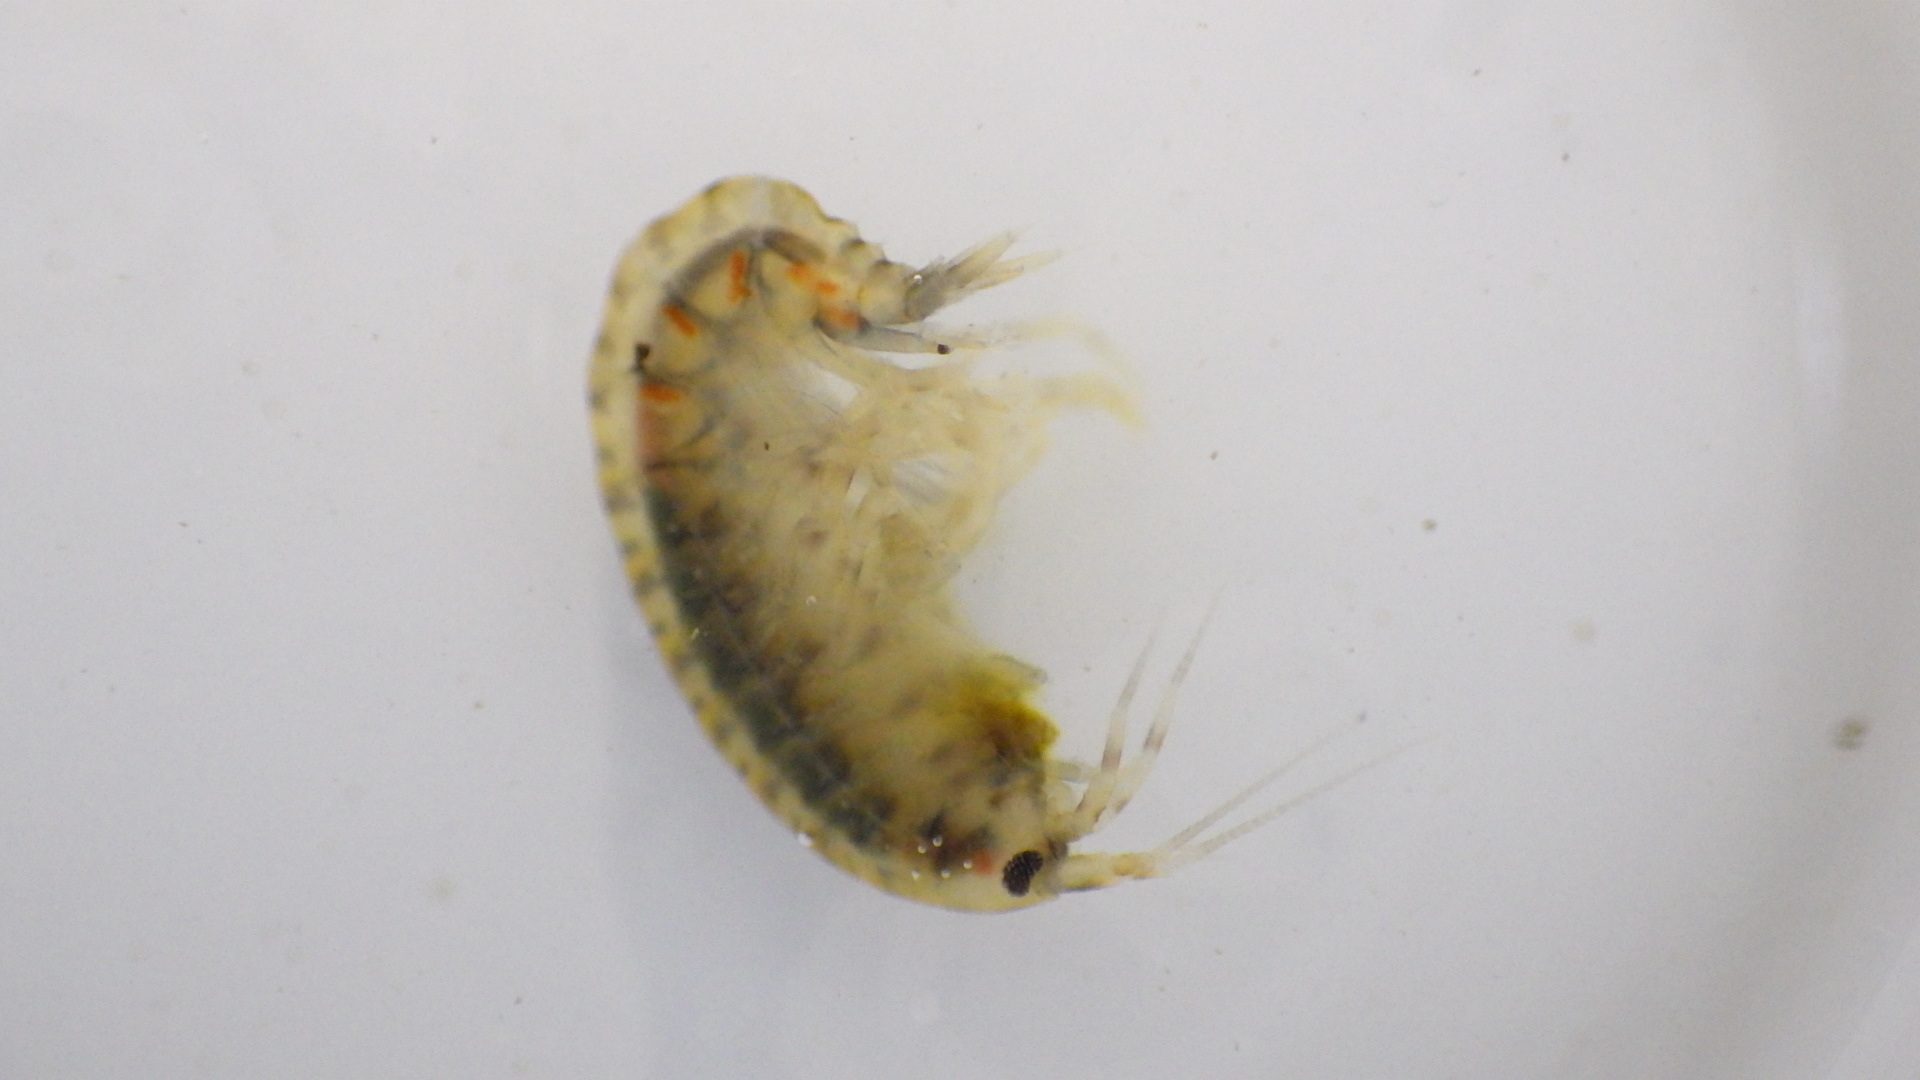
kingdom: Animalia
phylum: Arthropoda
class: Malacostraca
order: Amphipoda
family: Gammaridae
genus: Gammarus
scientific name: Gammarus fasciatus
